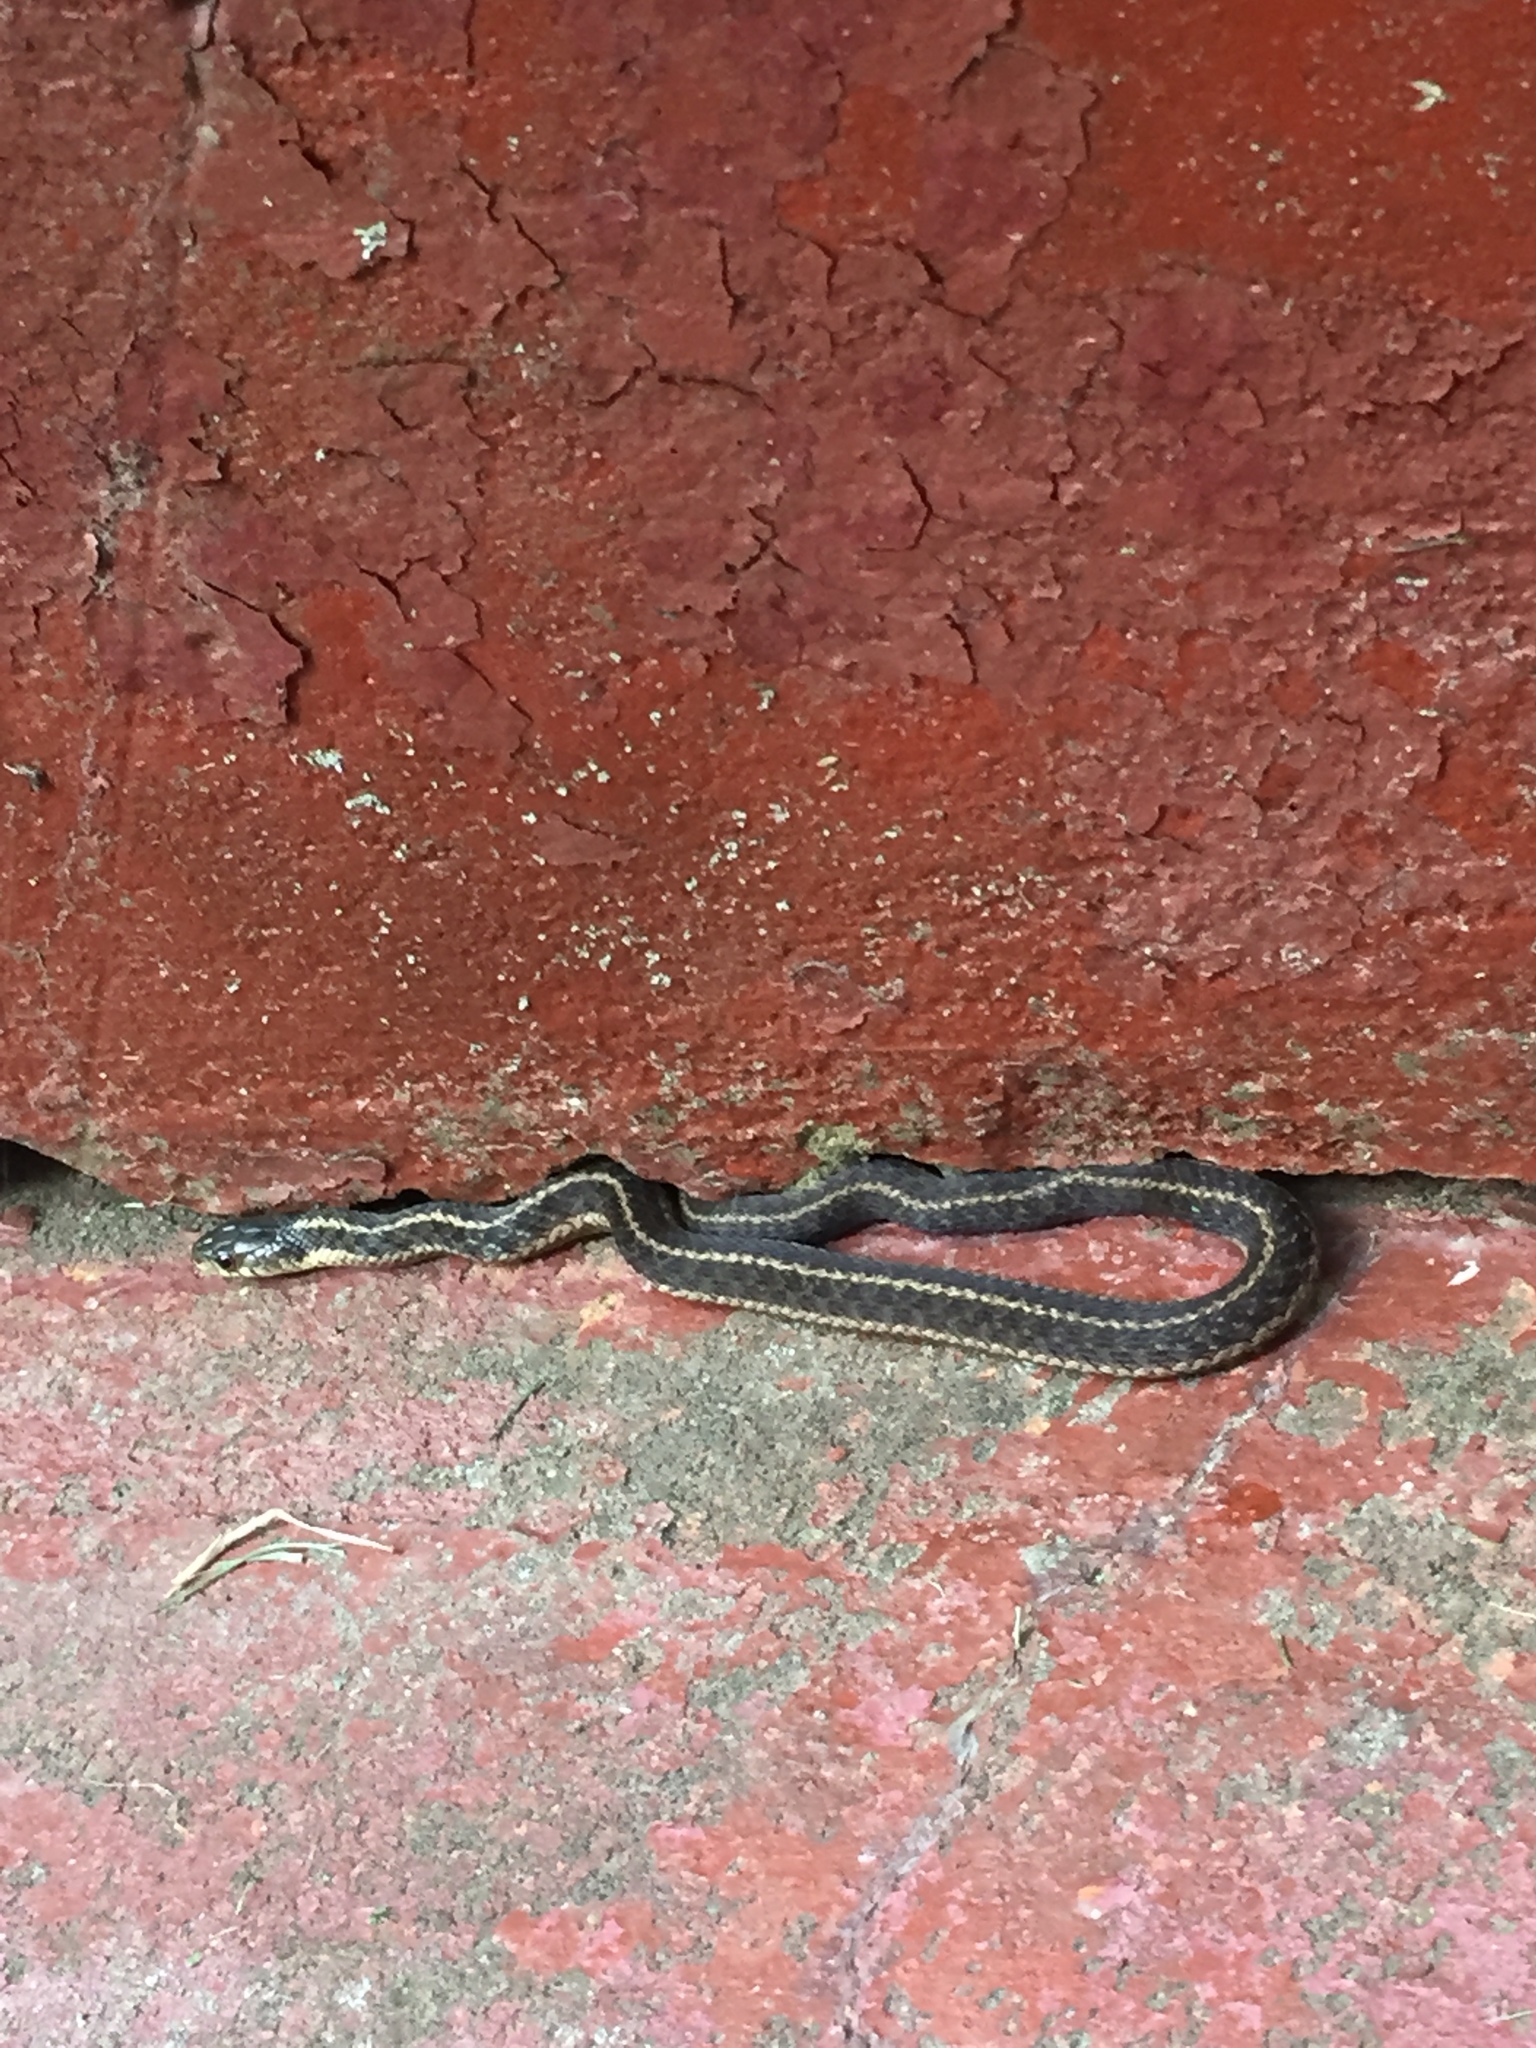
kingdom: Animalia
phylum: Chordata
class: Squamata
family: Colubridae
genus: Thamnophis
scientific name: Thamnophis sirtalis
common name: Common garter snake
